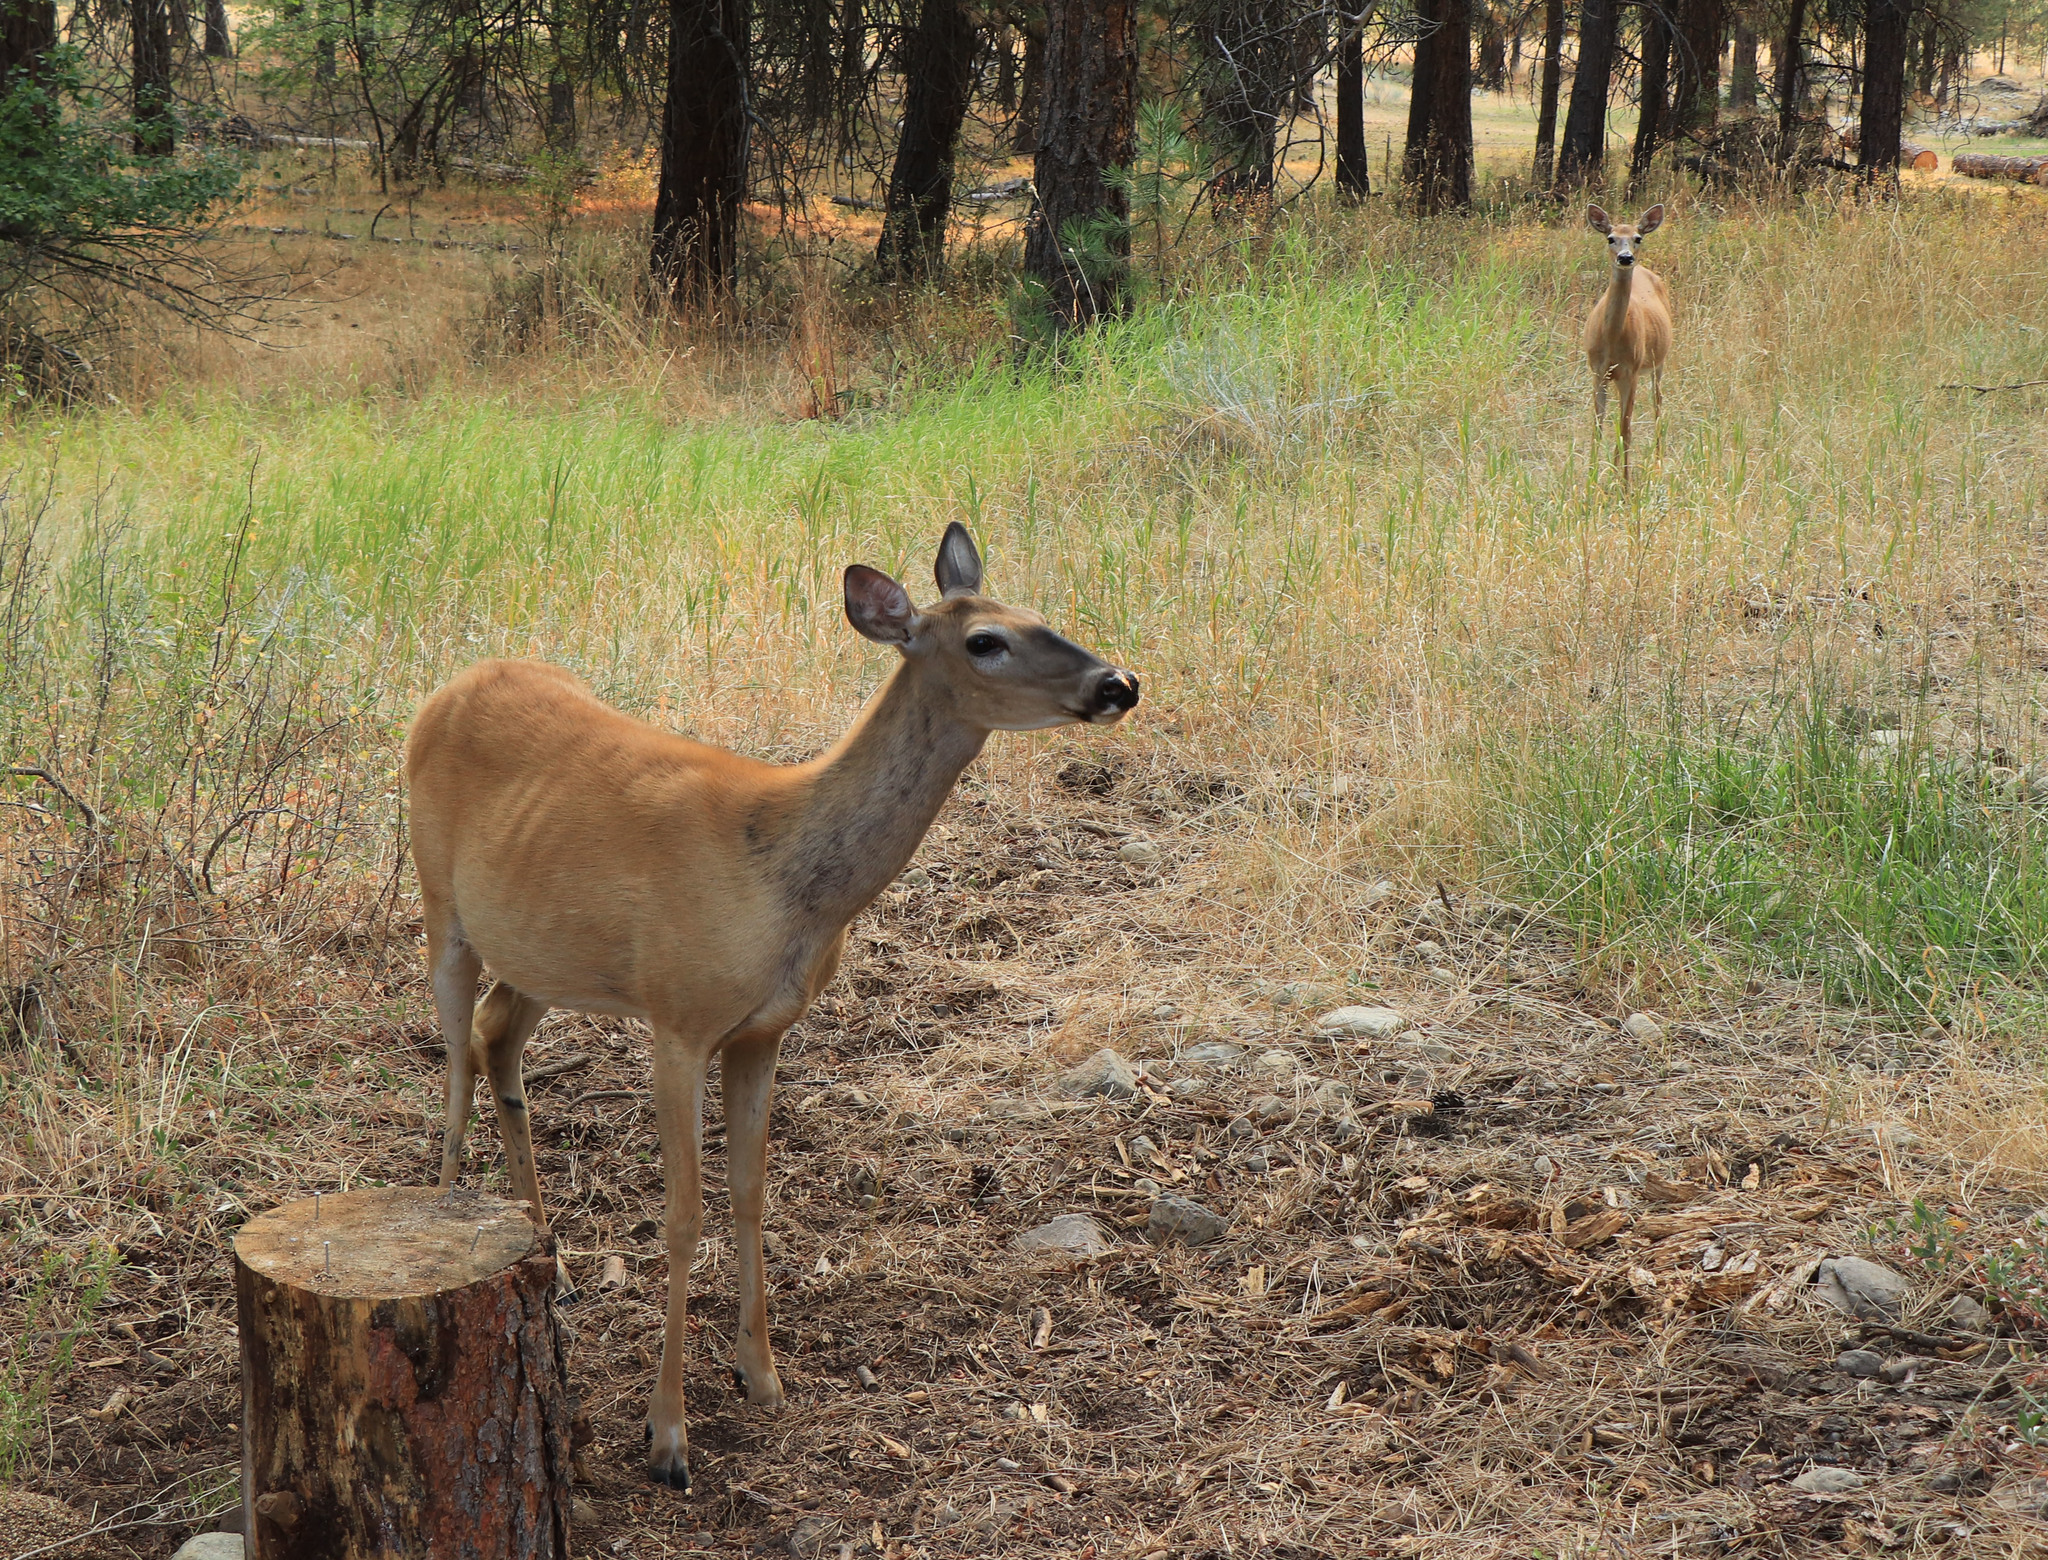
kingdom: Animalia
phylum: Chordata
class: Mammalia
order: Artiodactyla
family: Cervidae
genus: Odocoileus
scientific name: Odocoileus virginianus
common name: White-tailed deer
